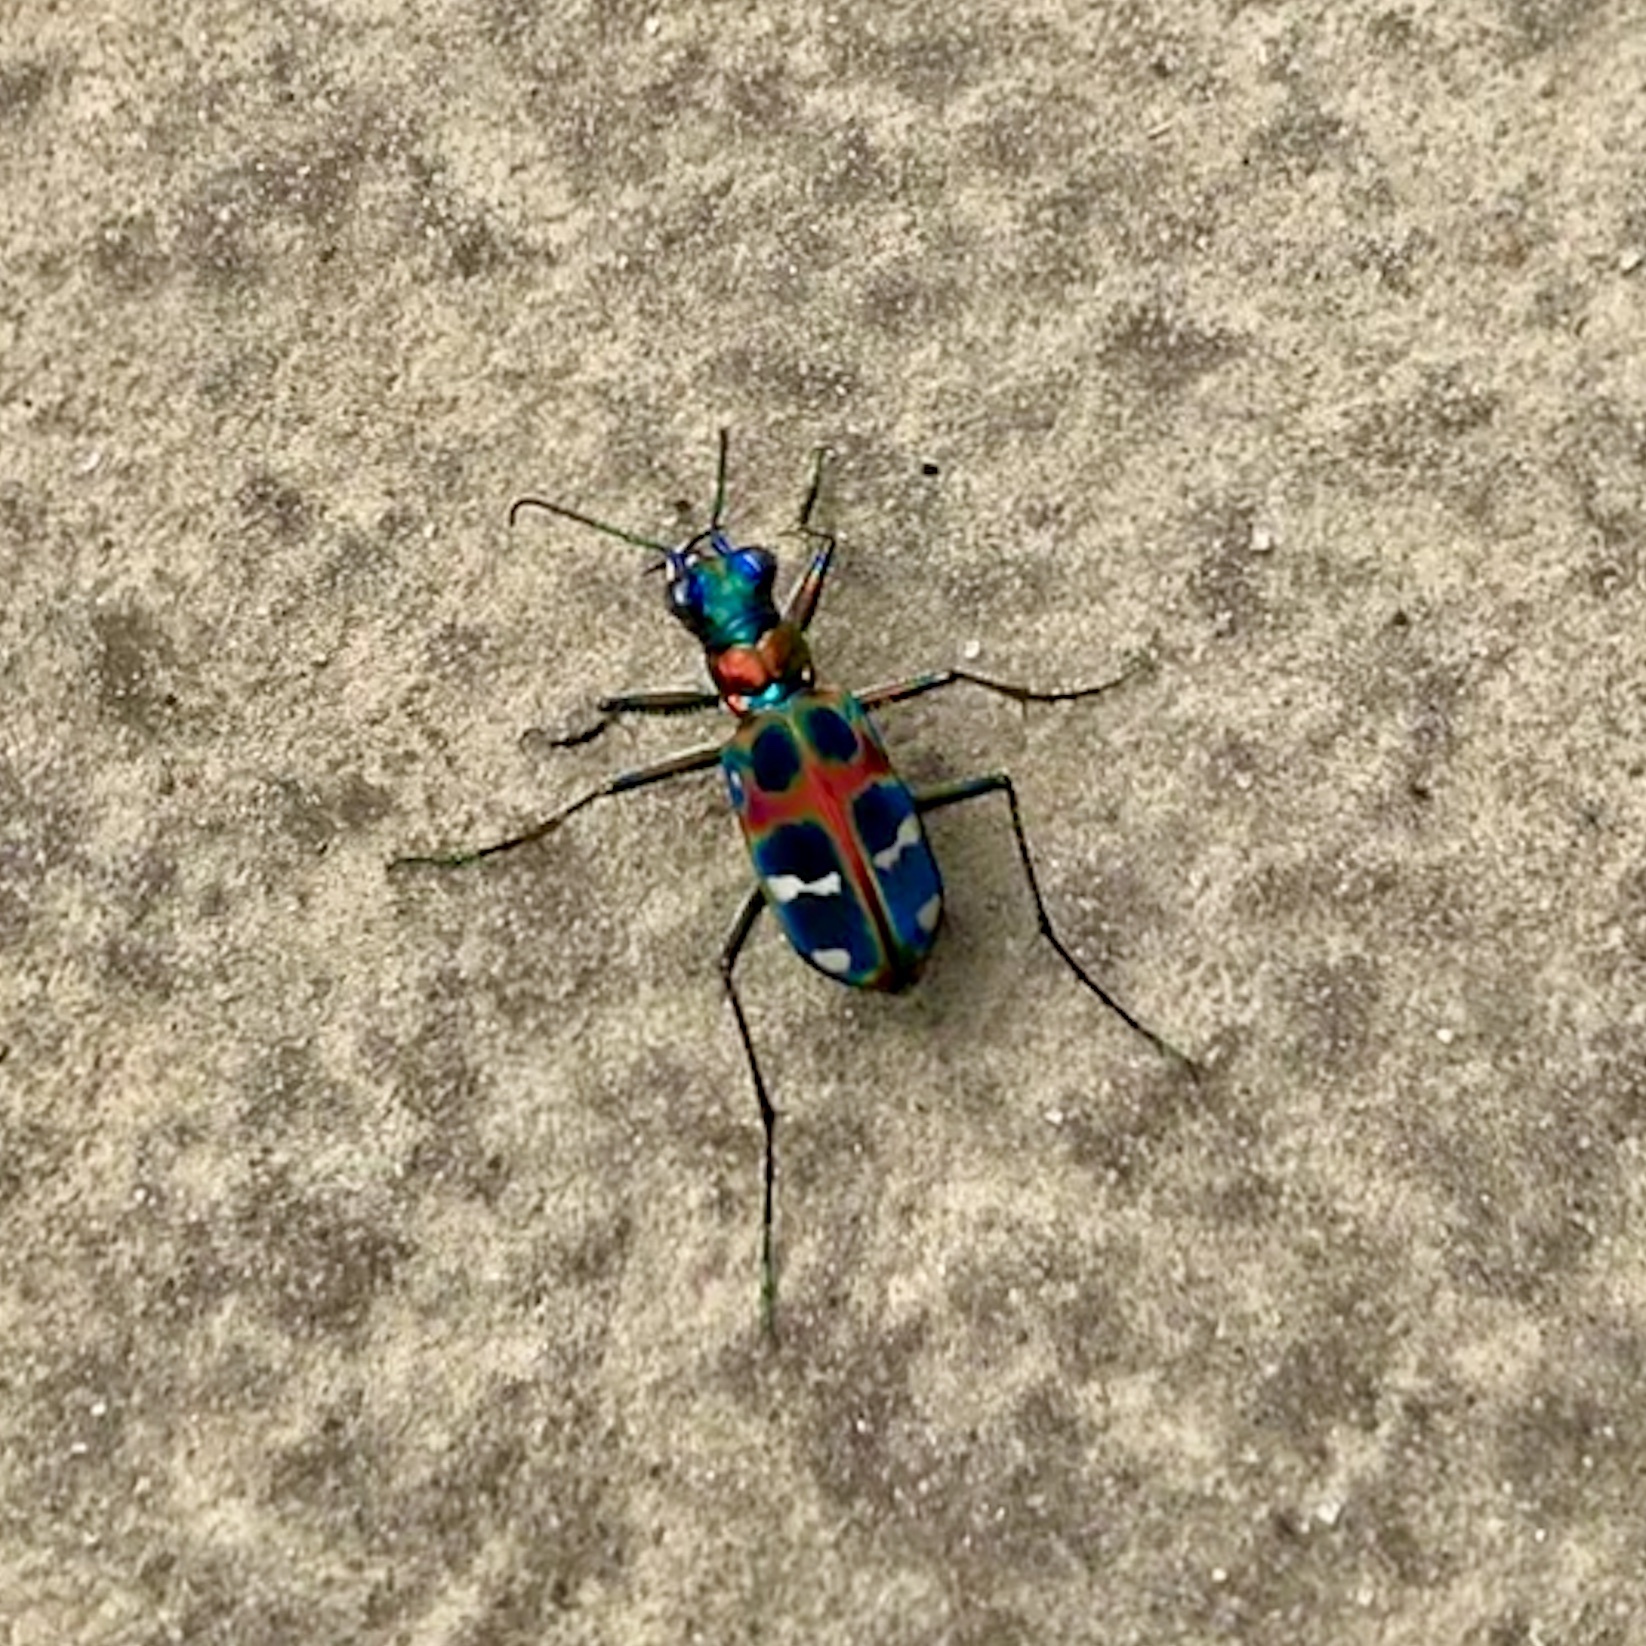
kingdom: Animalia
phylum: Arthropoda
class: Insecta
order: Coleoptera
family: Carabidae
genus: Cicindela
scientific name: Cicindela chinensis
